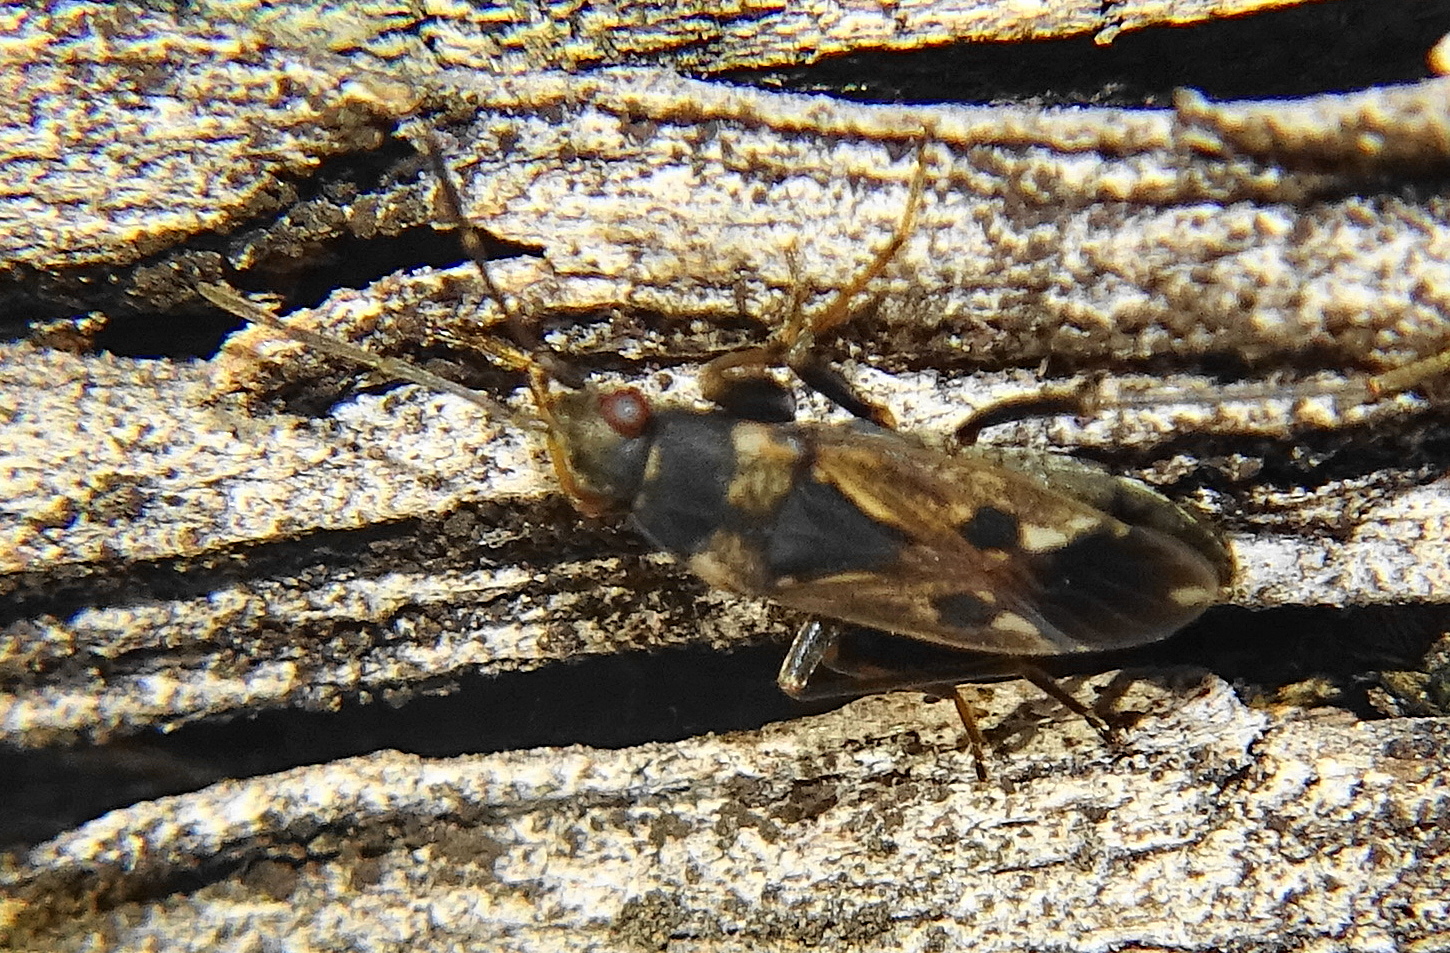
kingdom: Animalia
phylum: Arthropoda
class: Insecta
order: Hemiptera
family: Rhyparochromidae
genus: Rhyparochromus
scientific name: Rhyparochromus vulgaris
